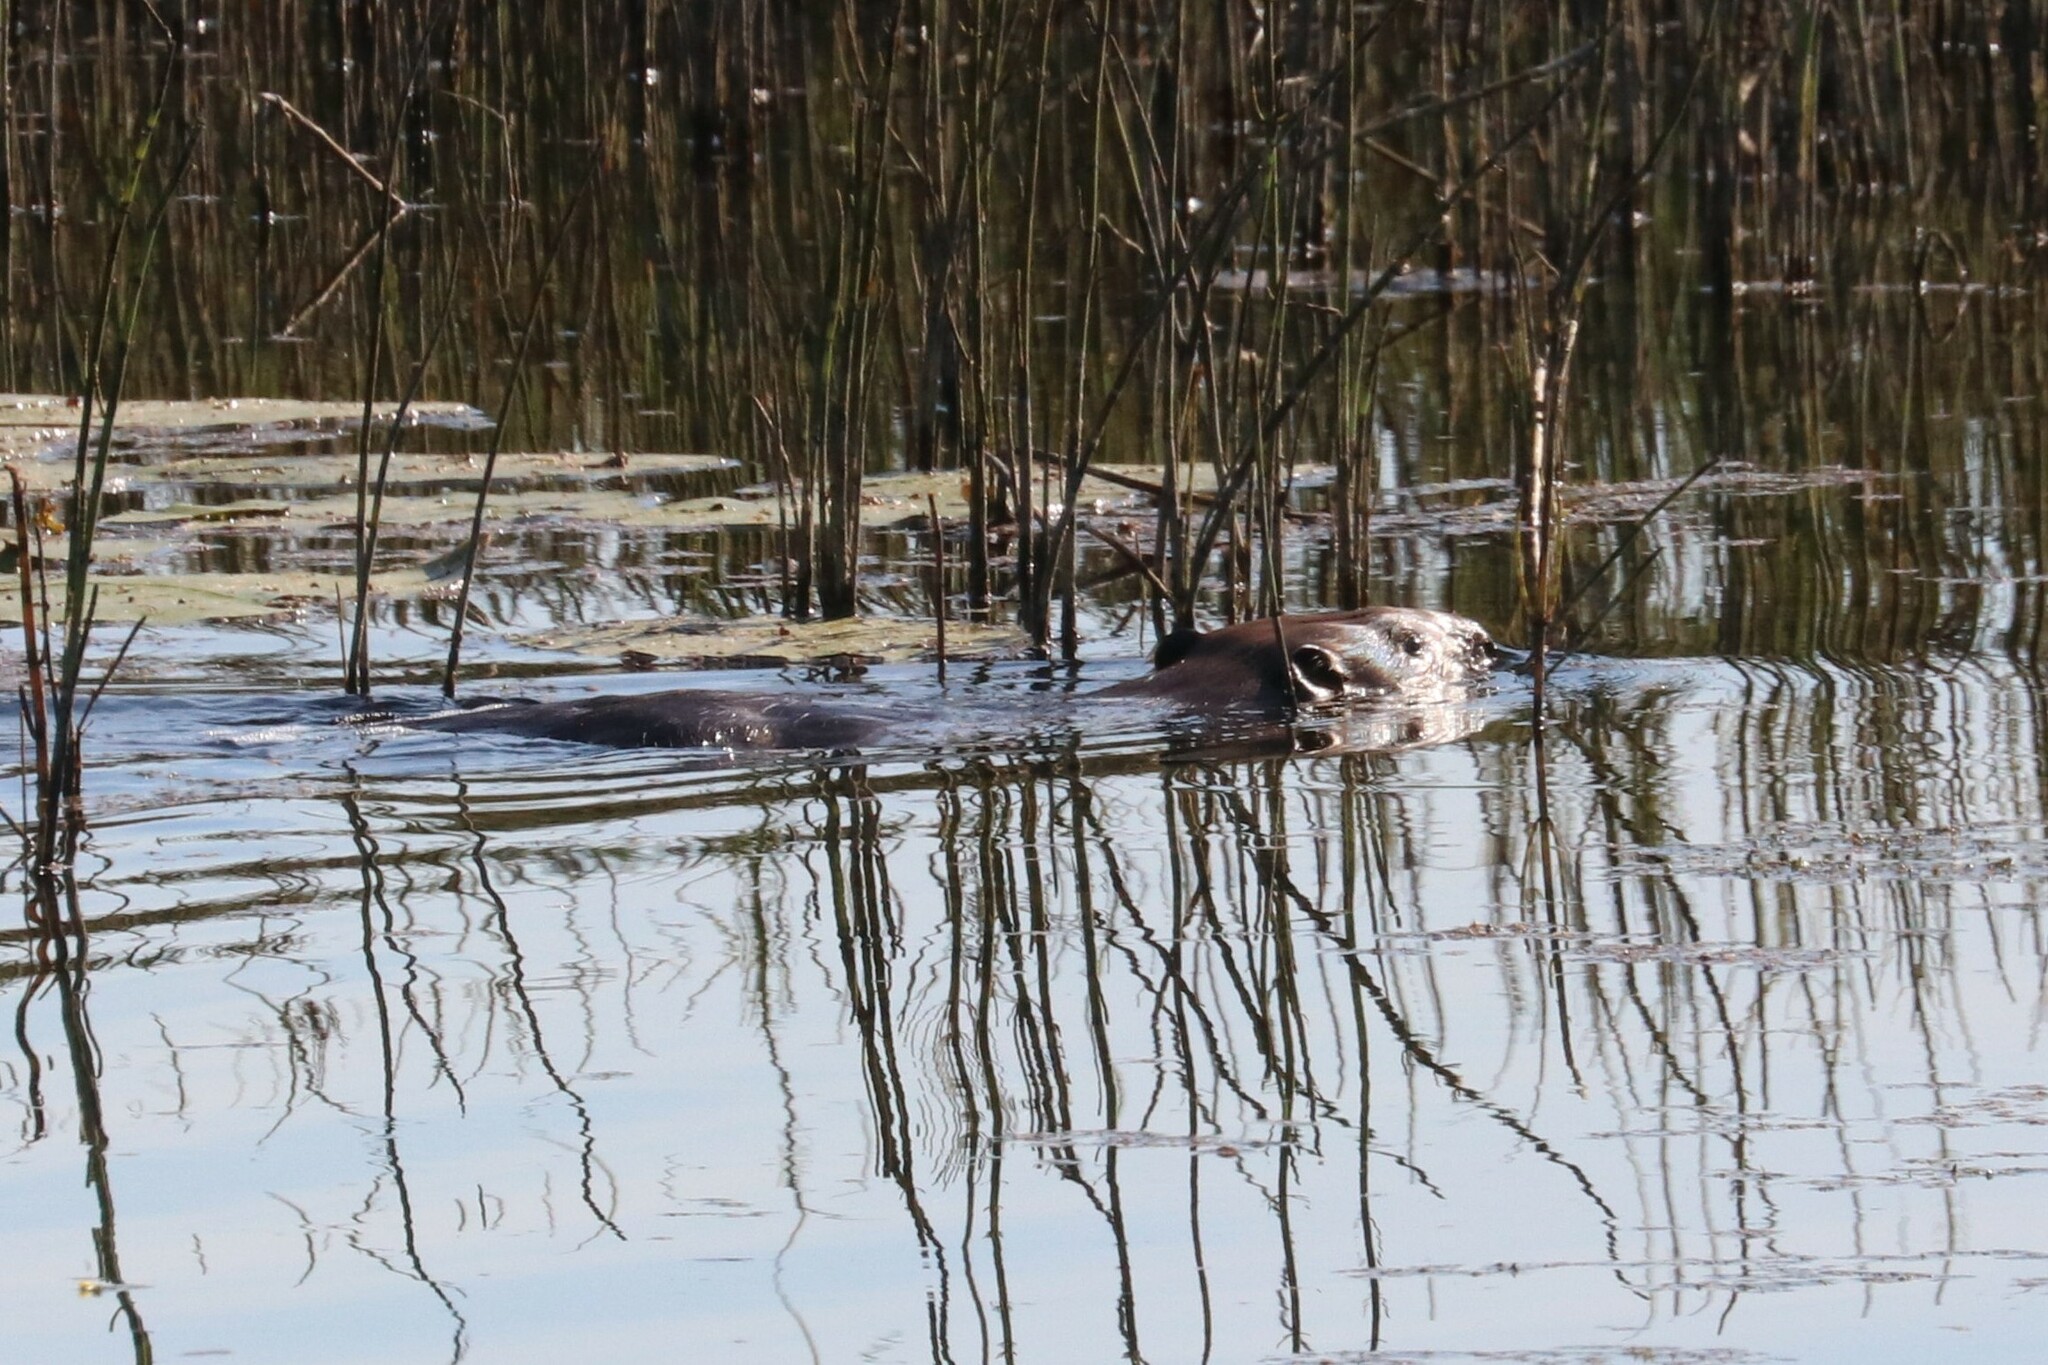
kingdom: Animalia
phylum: Chordata
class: Mammalia
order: Rodentia
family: Castoridae
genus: Castor
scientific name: Castor fiber
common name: Eurasian beaver
